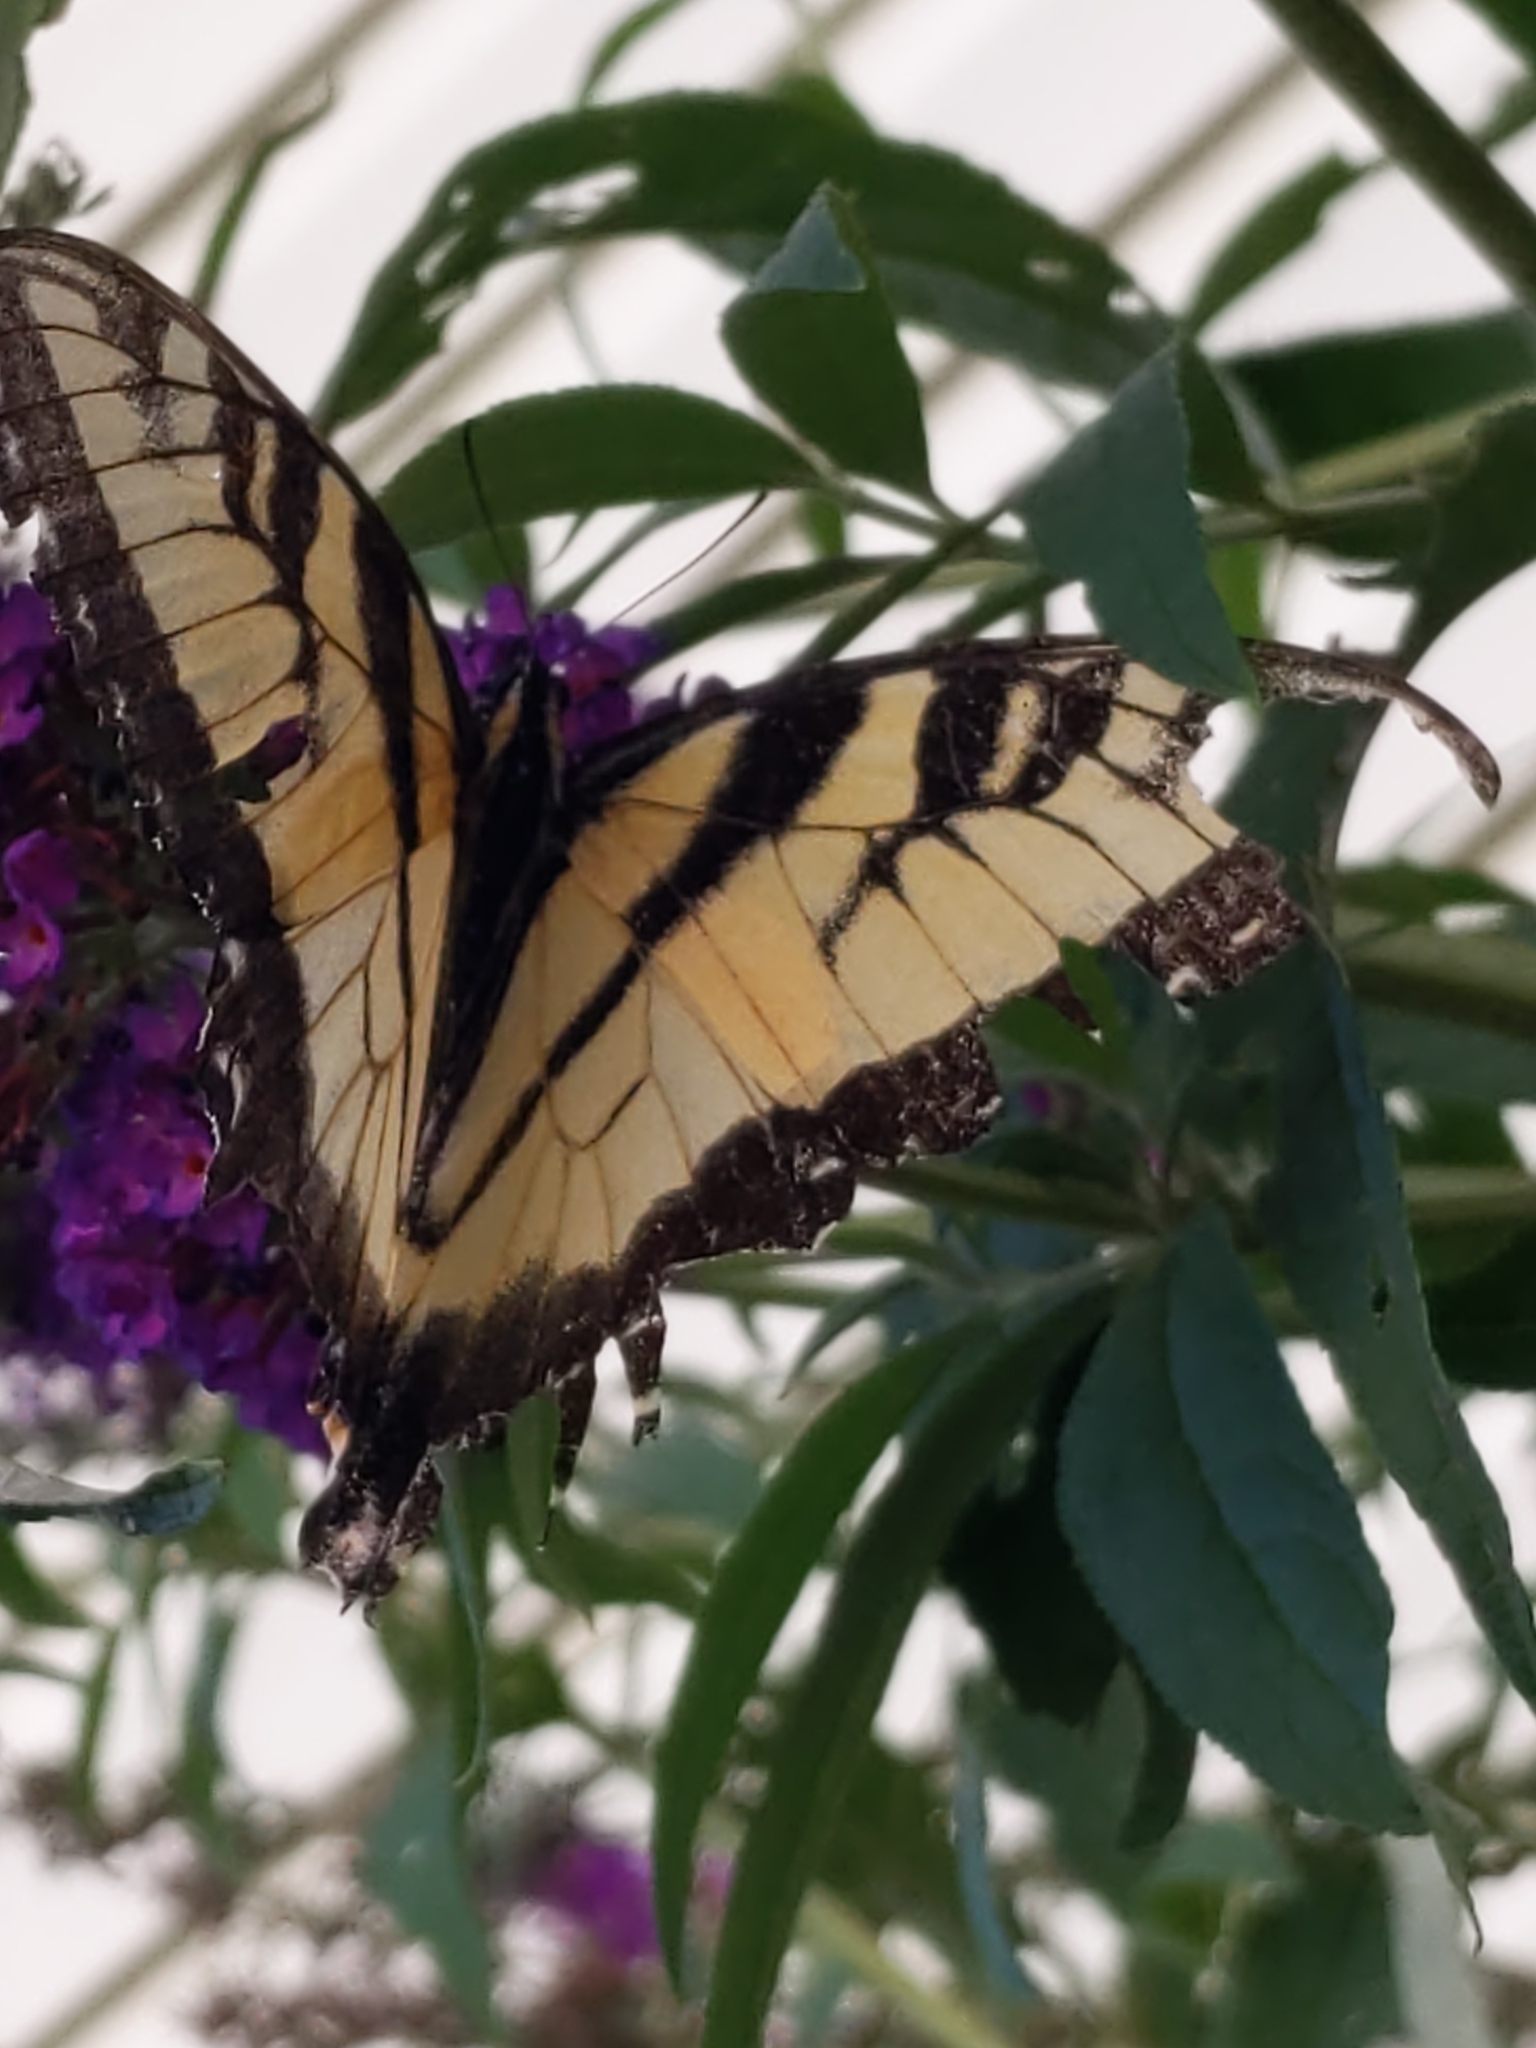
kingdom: Animalia
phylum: Arthropoda
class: Insecta
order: Lepidoptera
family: Papilionidae
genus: Papilio
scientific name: Papilio glaucus
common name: Tiger swallowtail
